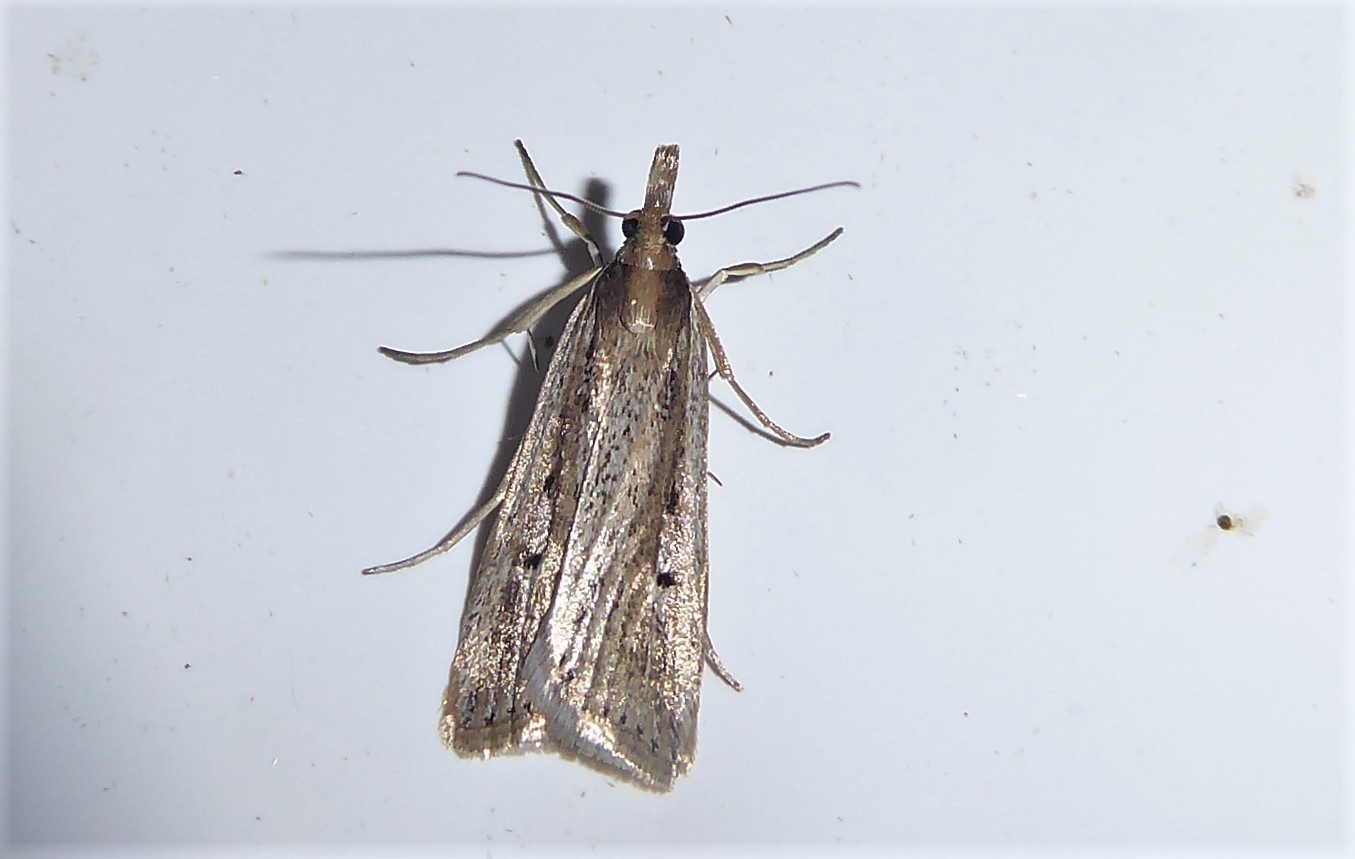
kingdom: Animalia
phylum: Arthropoda
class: Insecta
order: Lepidoptera
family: Crambidae
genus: Eudonia
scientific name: Eudonia sabulosella
